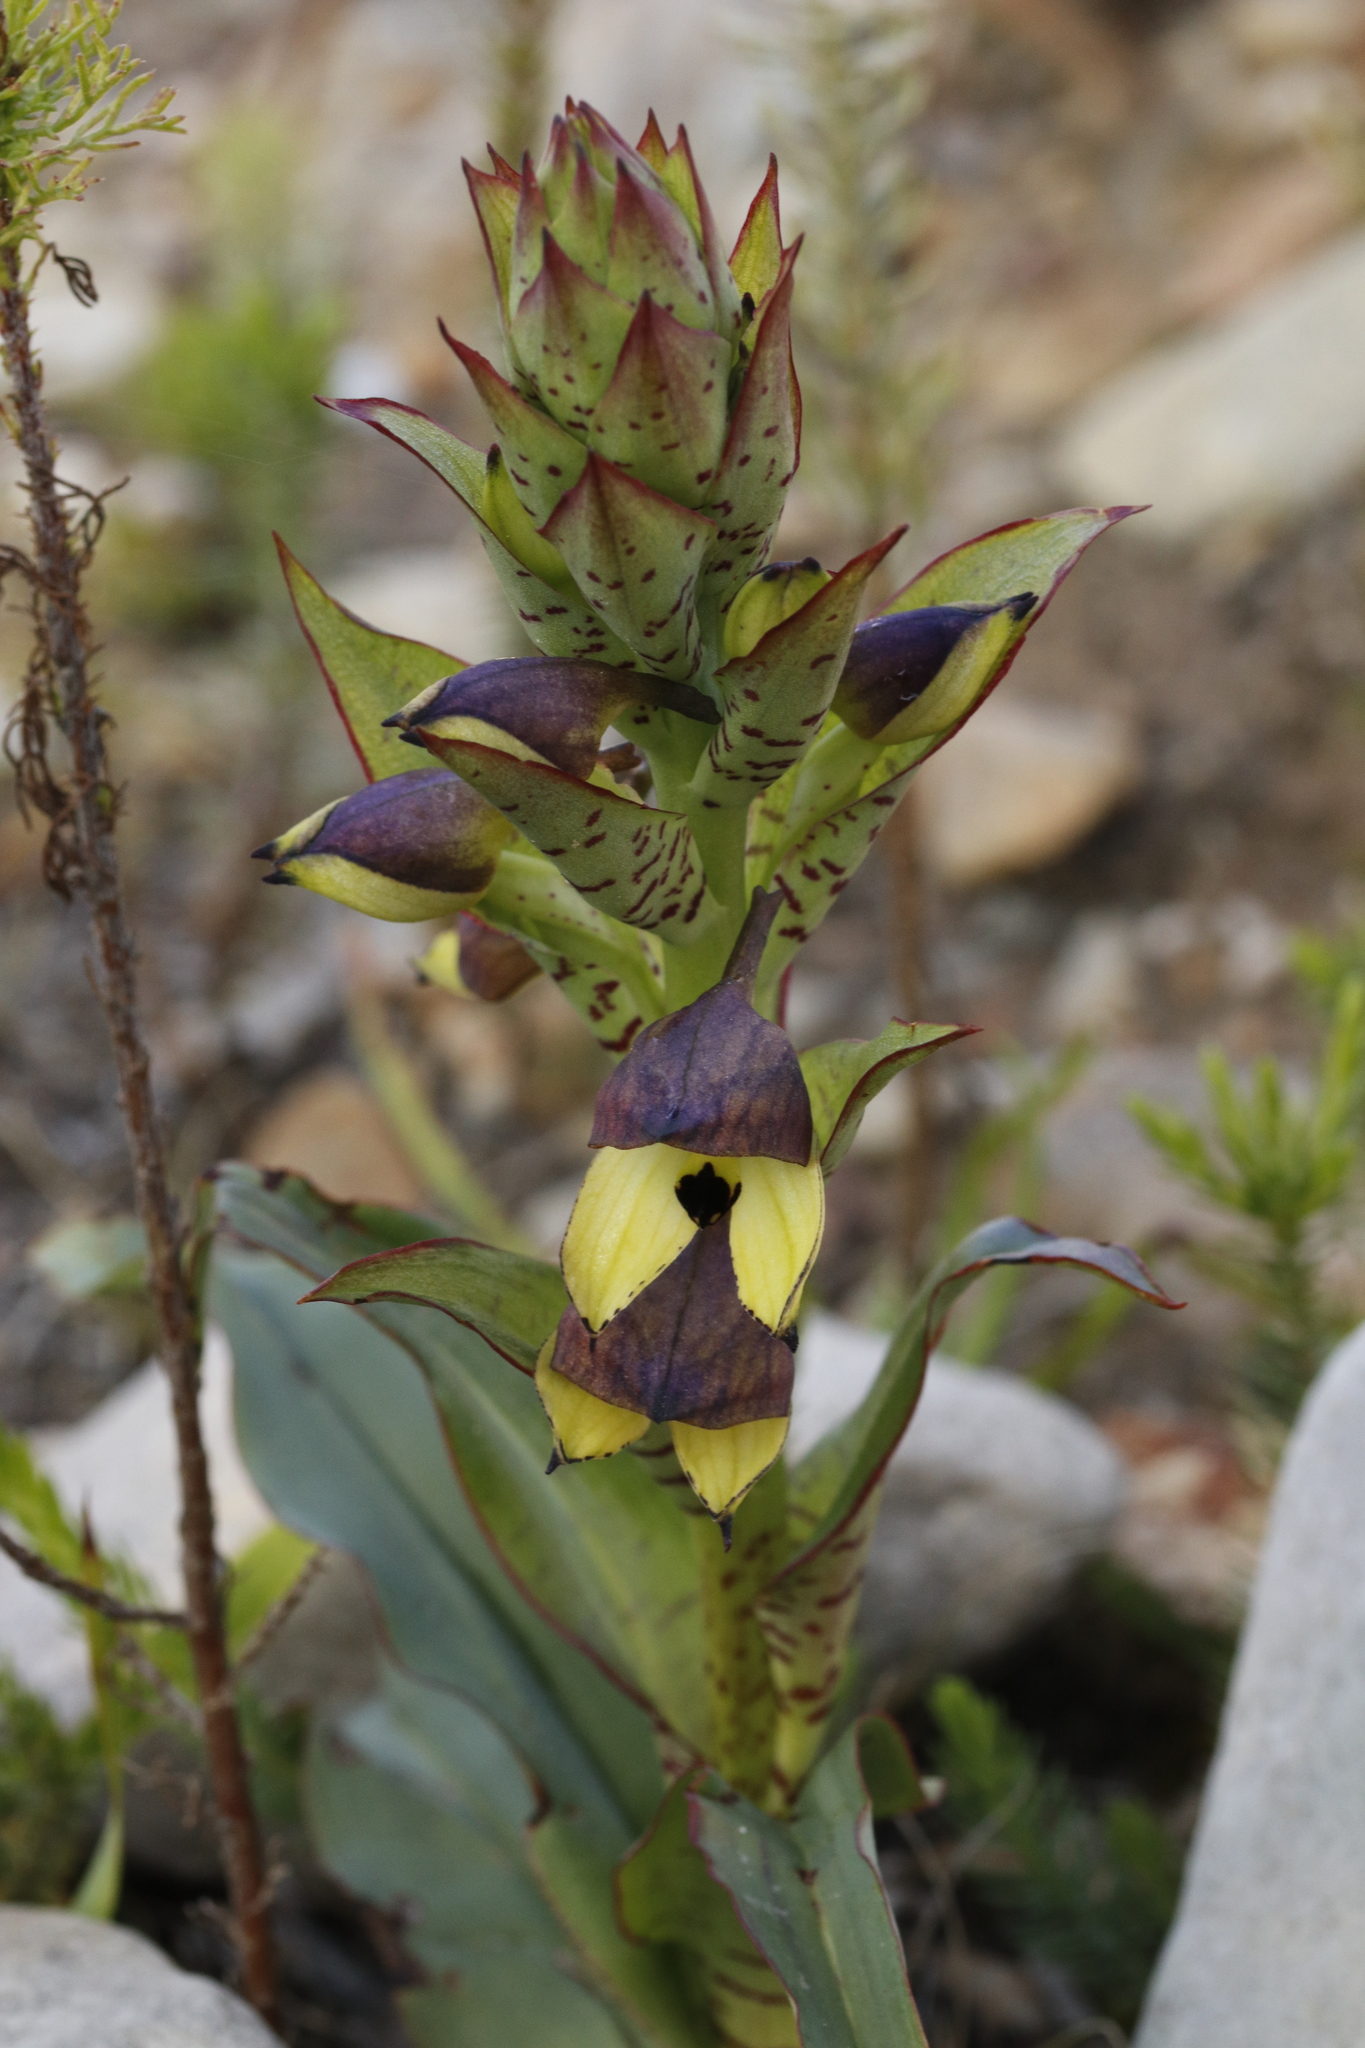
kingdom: Plantae
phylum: Tracheophyta
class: Liliopsida
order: Asparagales
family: Orchidaceae
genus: Disa
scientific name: Disa cornuta
